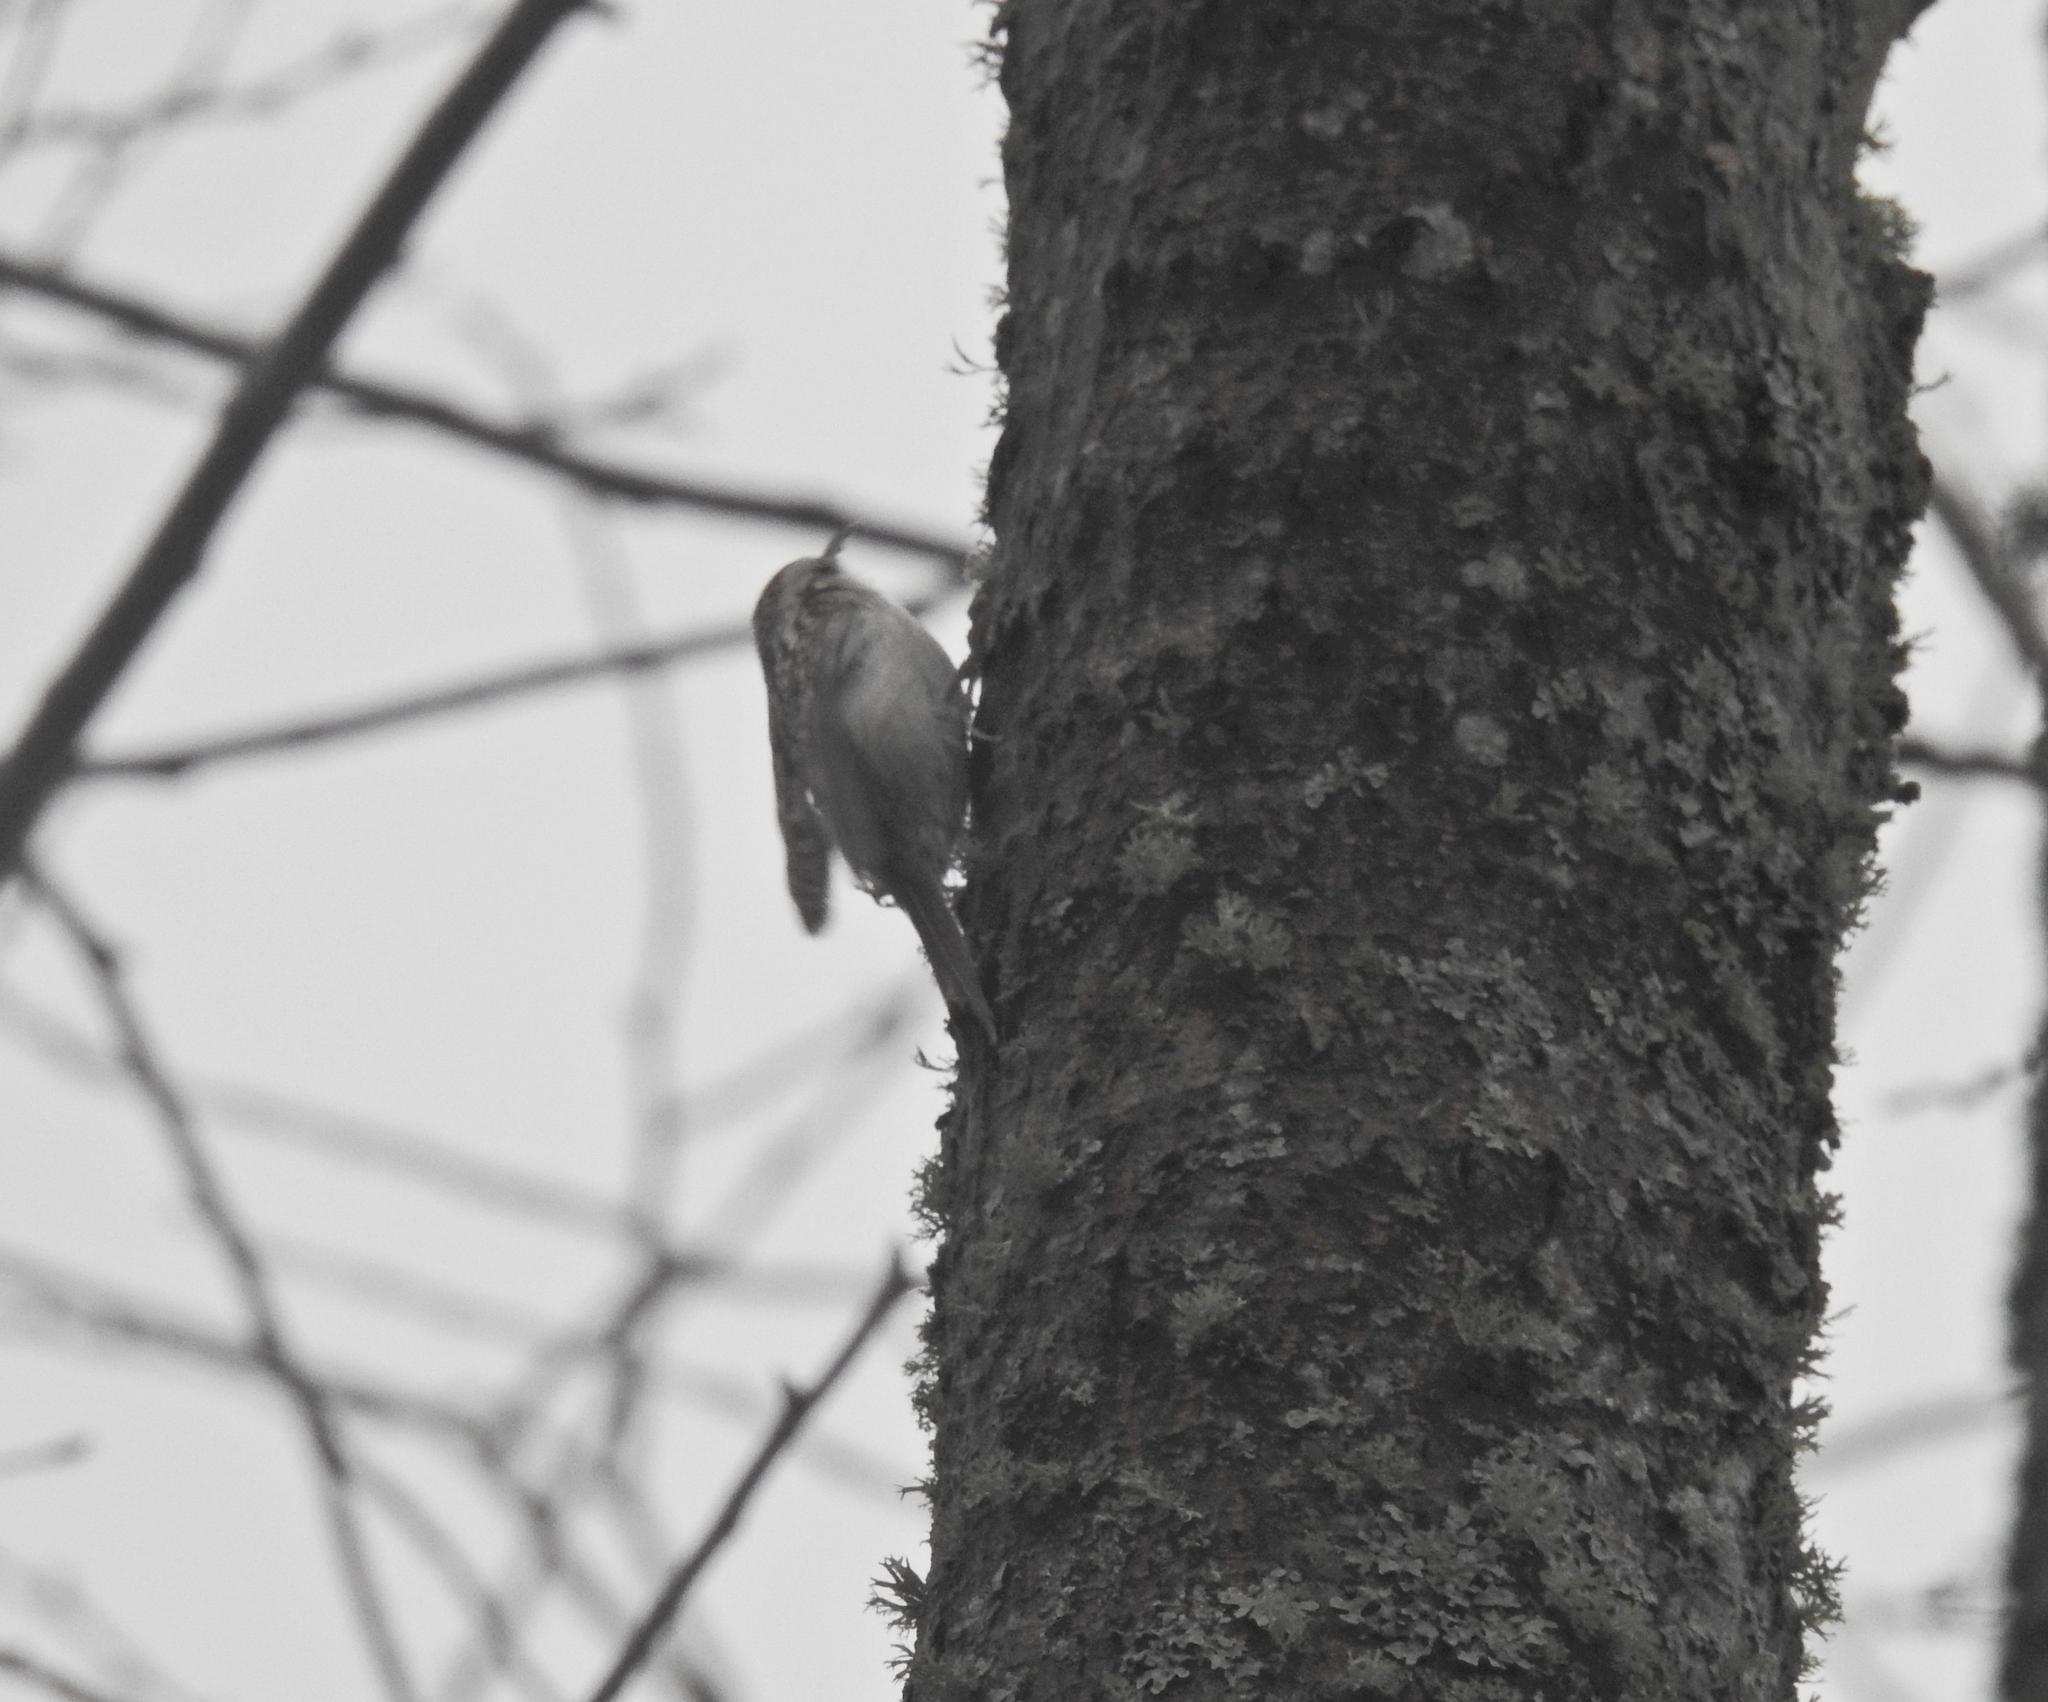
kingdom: Animalia
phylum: Chordata
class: Aves
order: Passeriformes
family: Certhiidae
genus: Certhia
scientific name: Certhia familiaris
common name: Eurasian treecreeper
